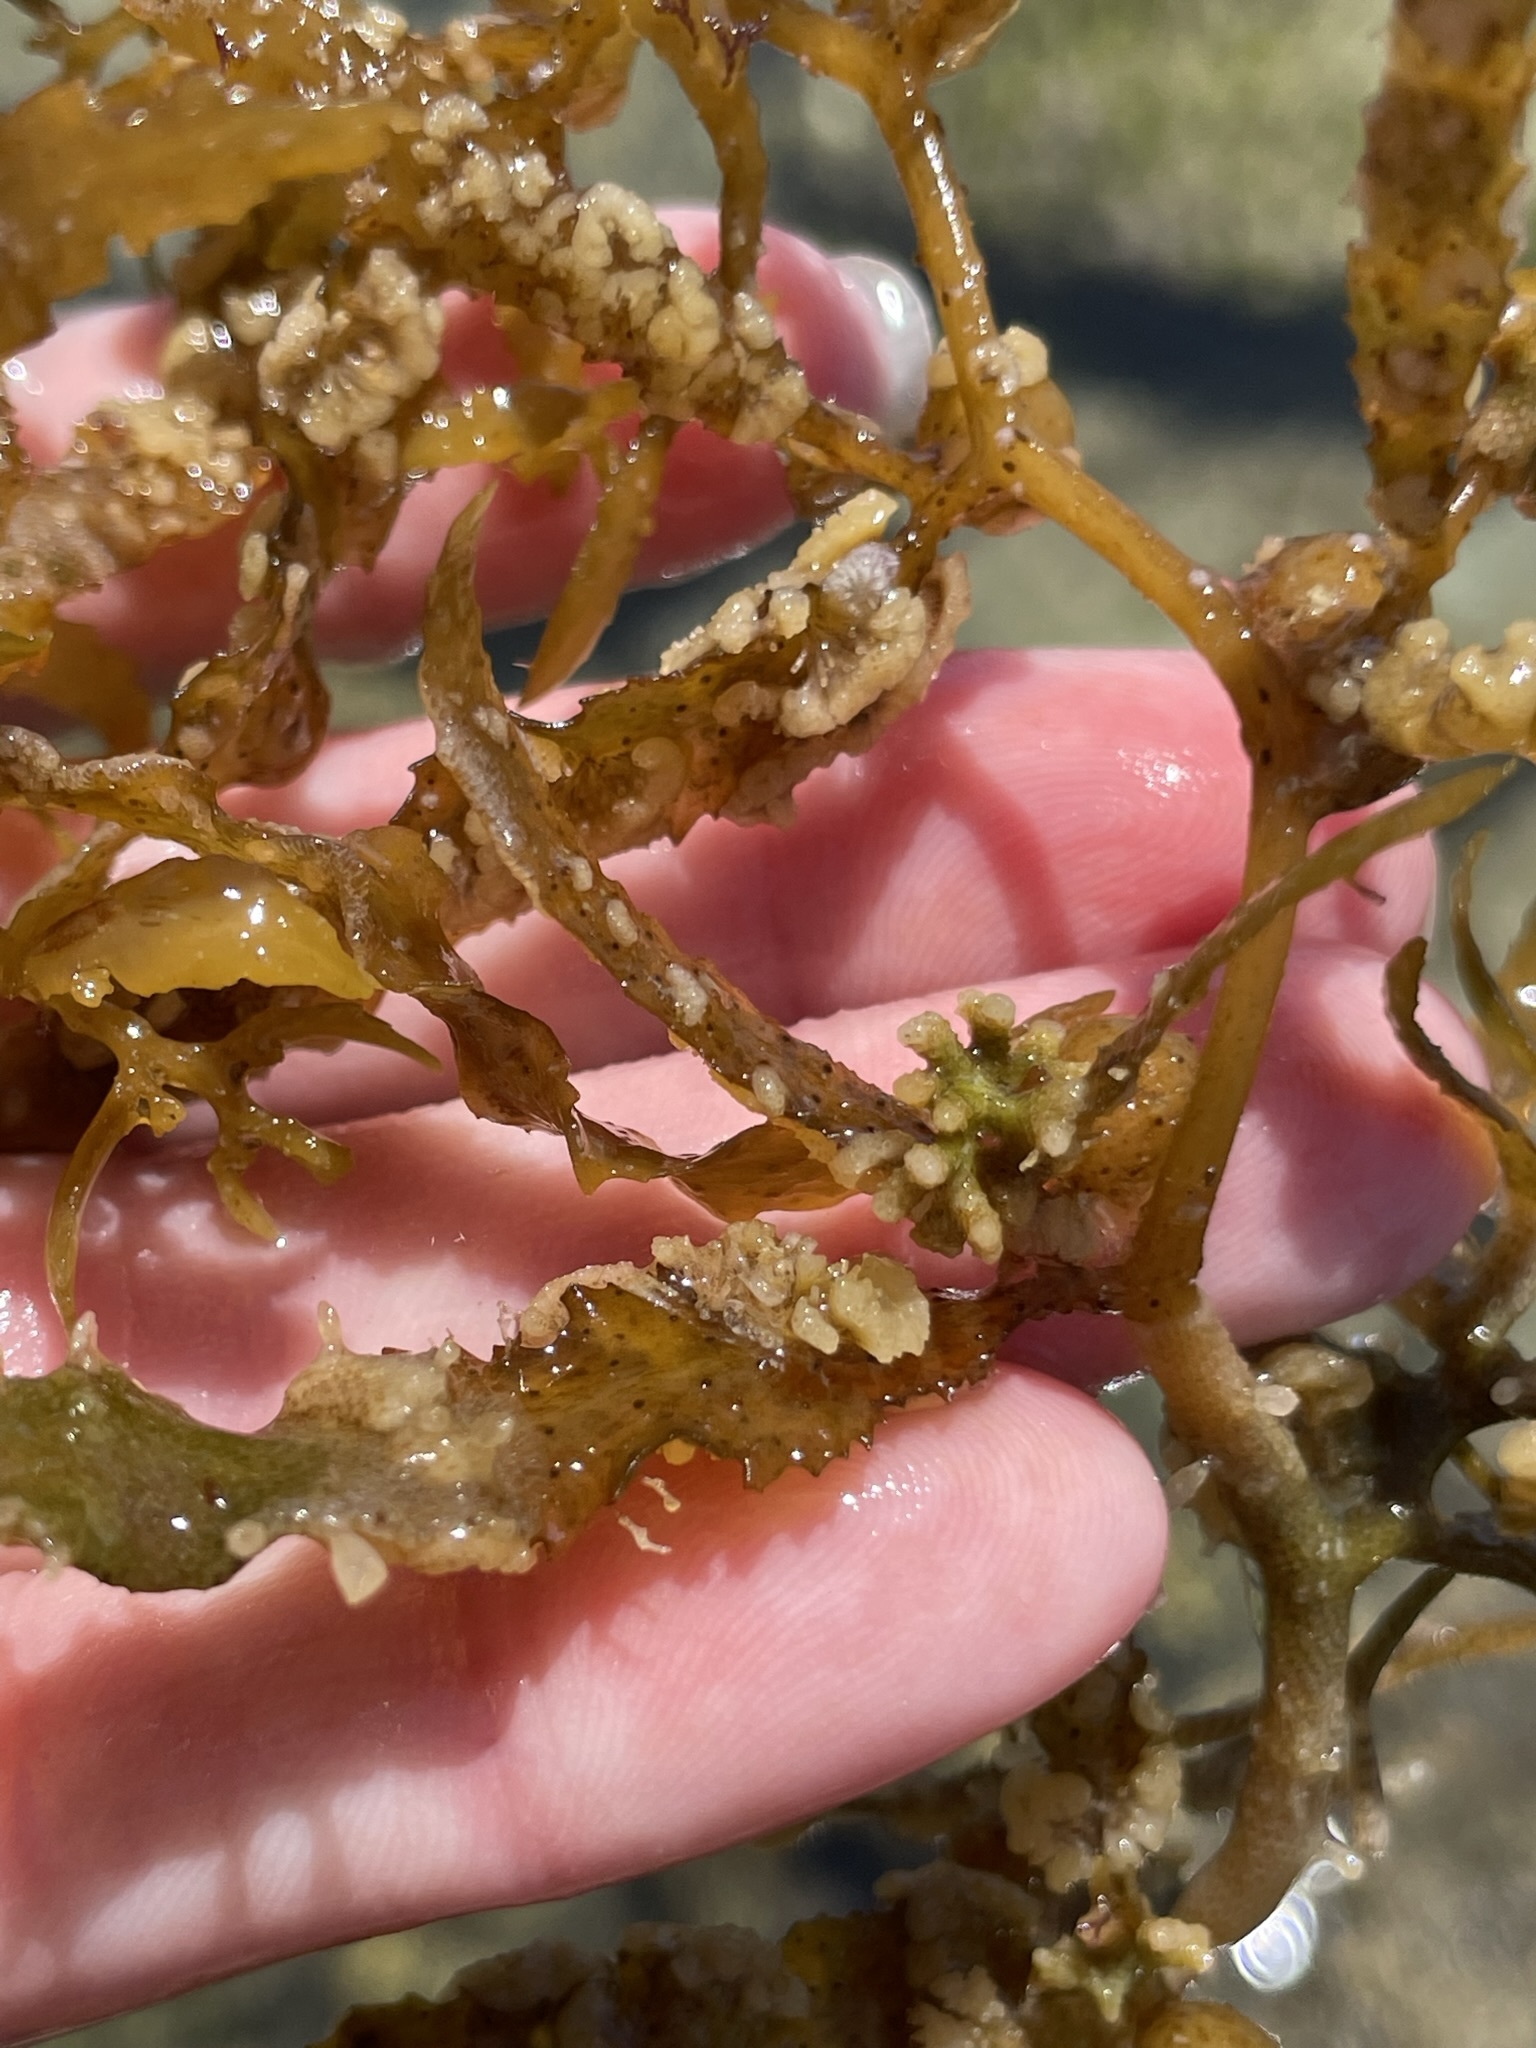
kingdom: Chromista
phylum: Ochrophyta
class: Phaeophyceae
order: Fucales
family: Sargassaceae
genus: Sargassum
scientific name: Sargassum fluitans
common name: Sargassum seaweed
